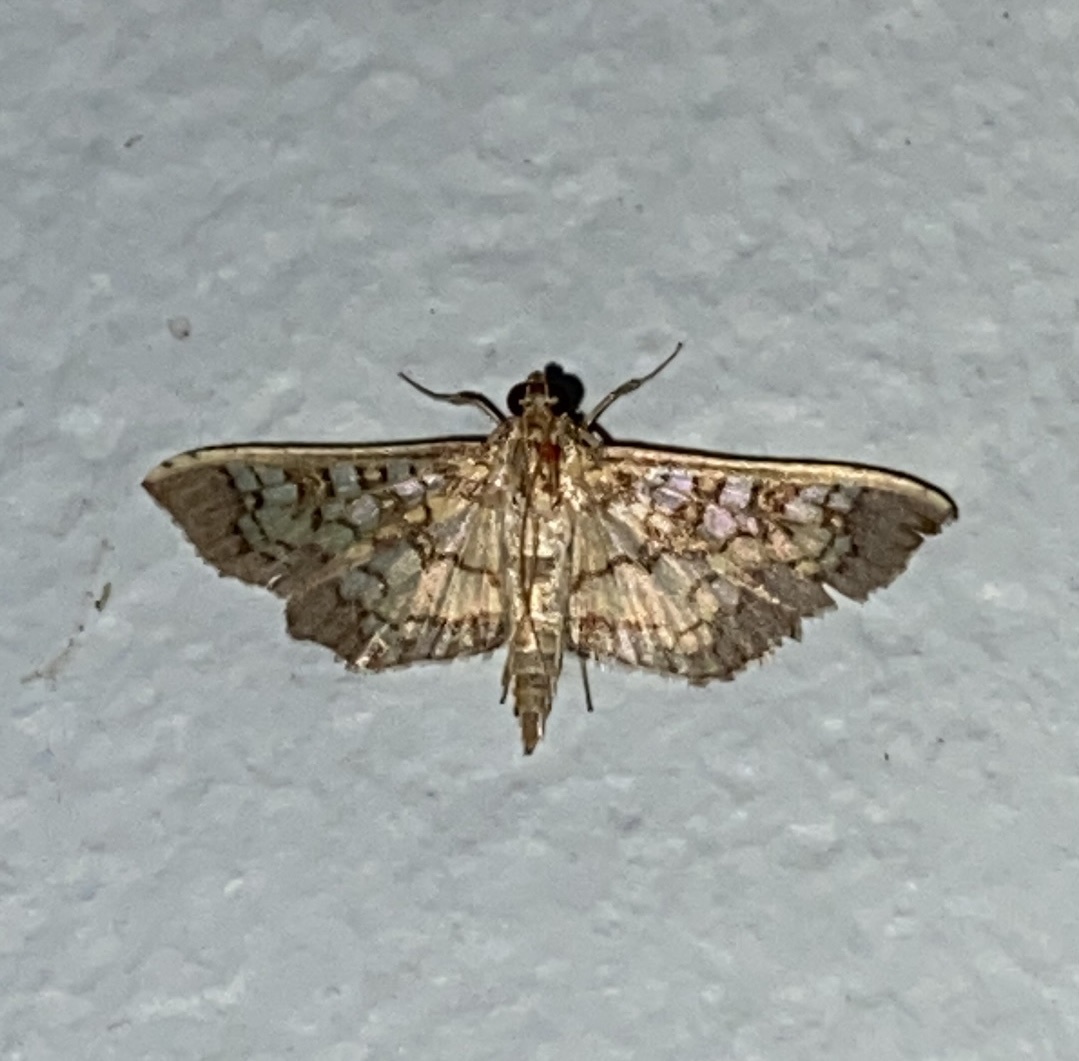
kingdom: Animalia
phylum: Arthropoda
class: Insecta
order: Lepidoptera
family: Crambidae
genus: Samea
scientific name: Samea ecclesialis
